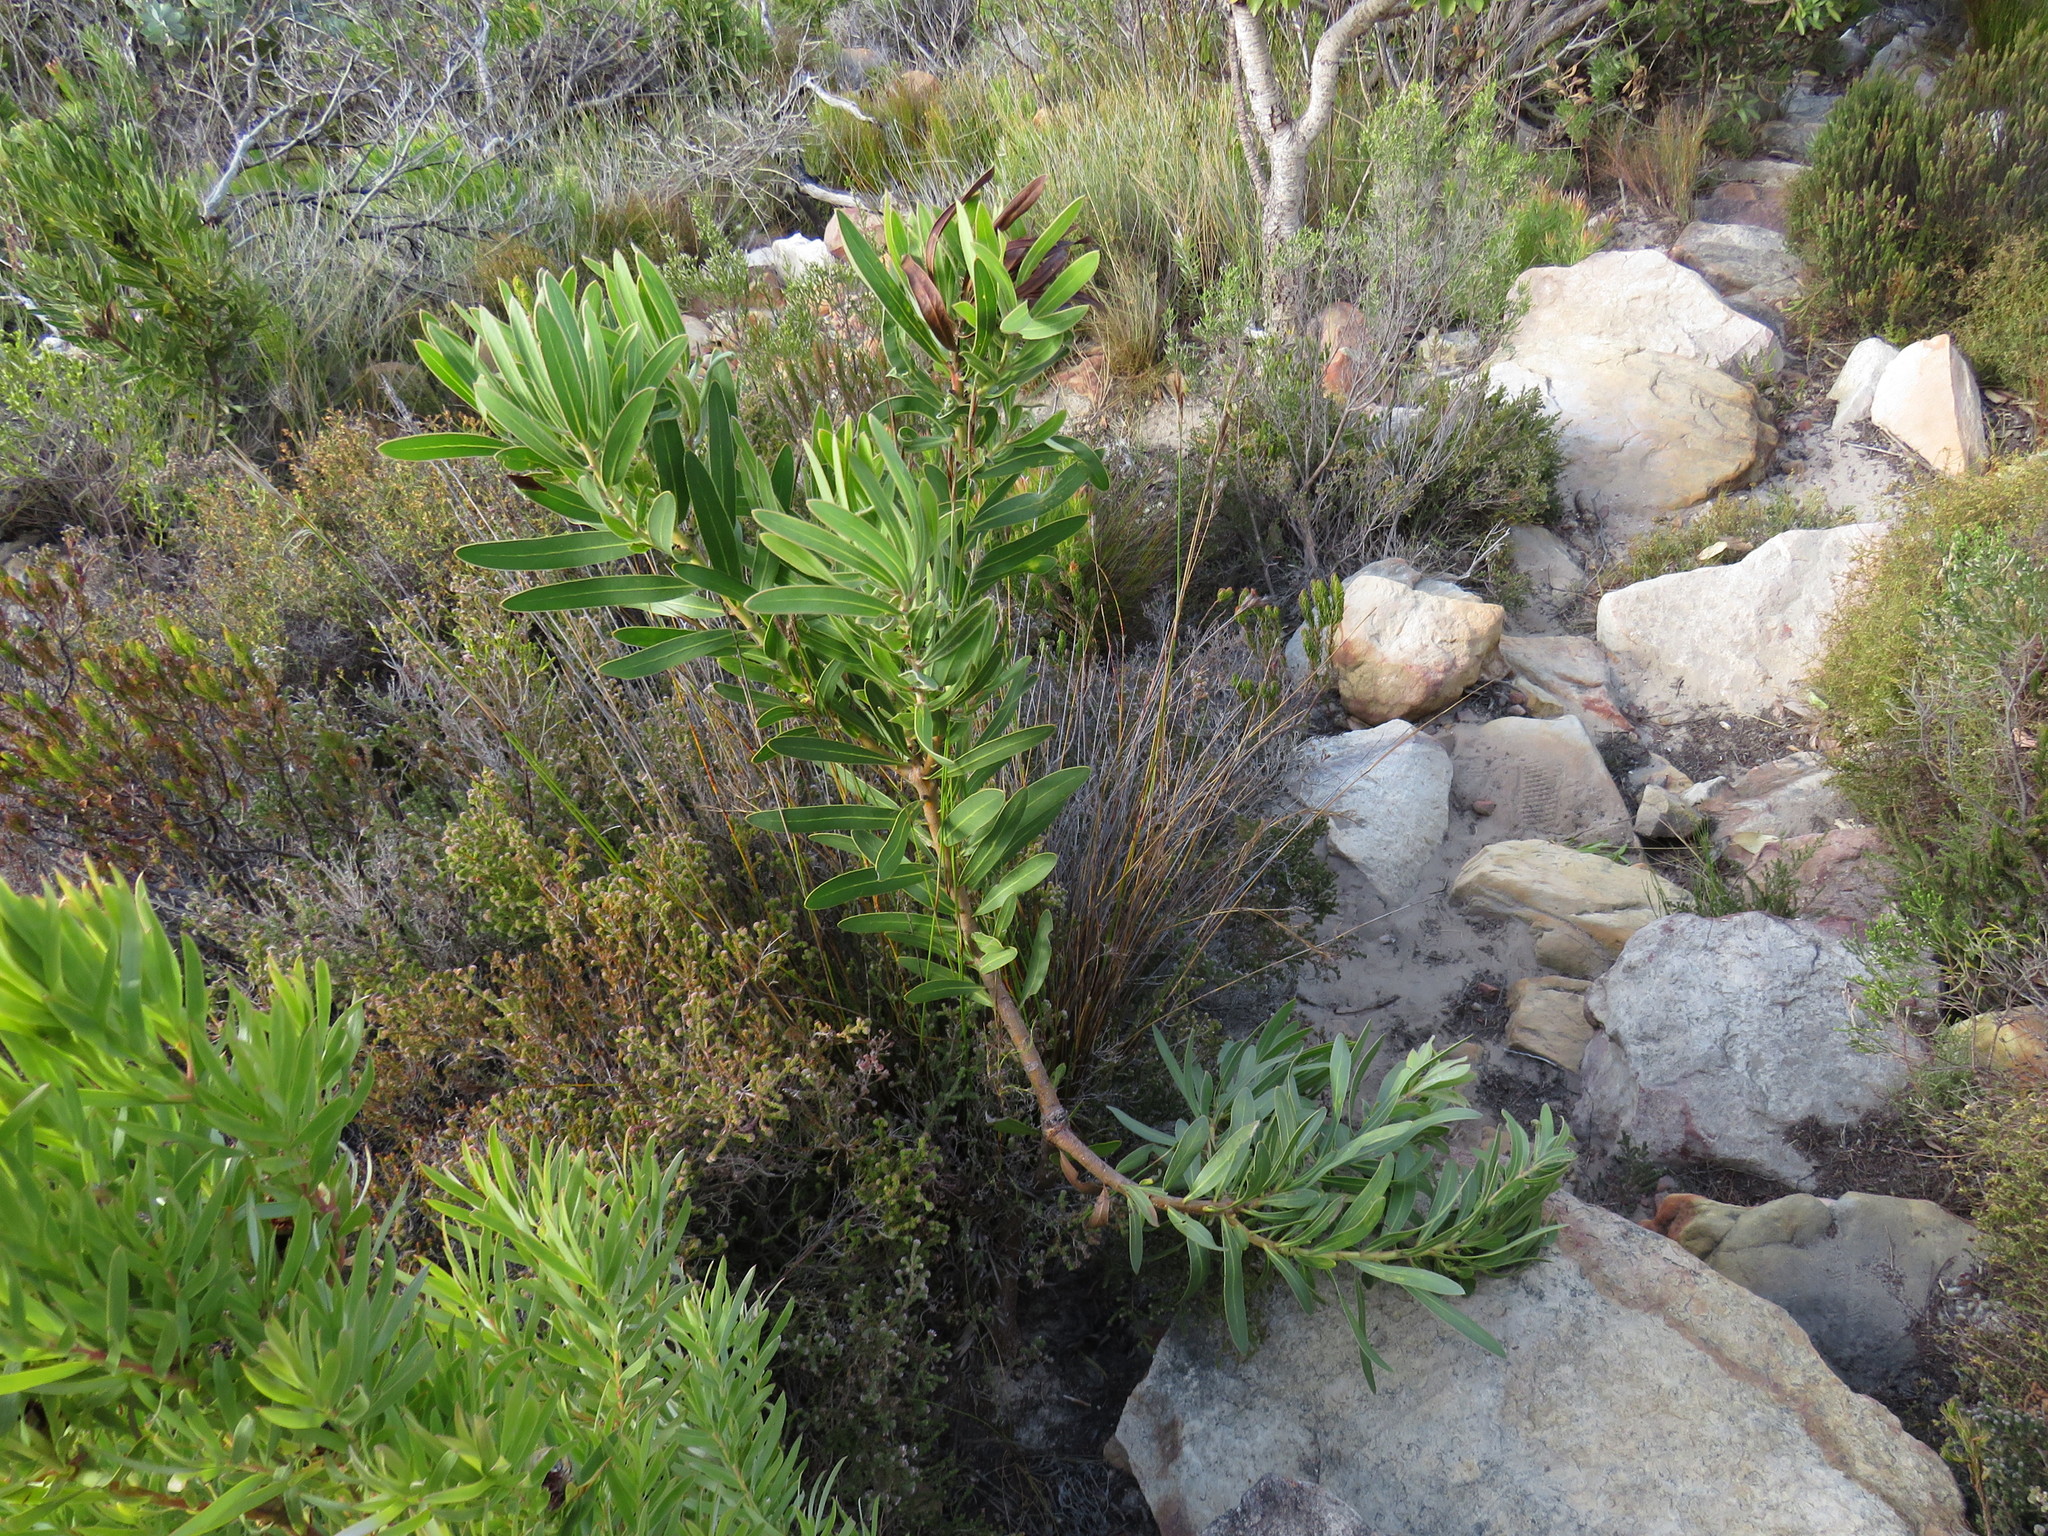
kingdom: Plantae
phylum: Tracheophyta
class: Magnoliopsida
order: Proteales
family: Proteaceae
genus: Protea
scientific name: Protea lepidocarpodendron
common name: Black-bearded protea
